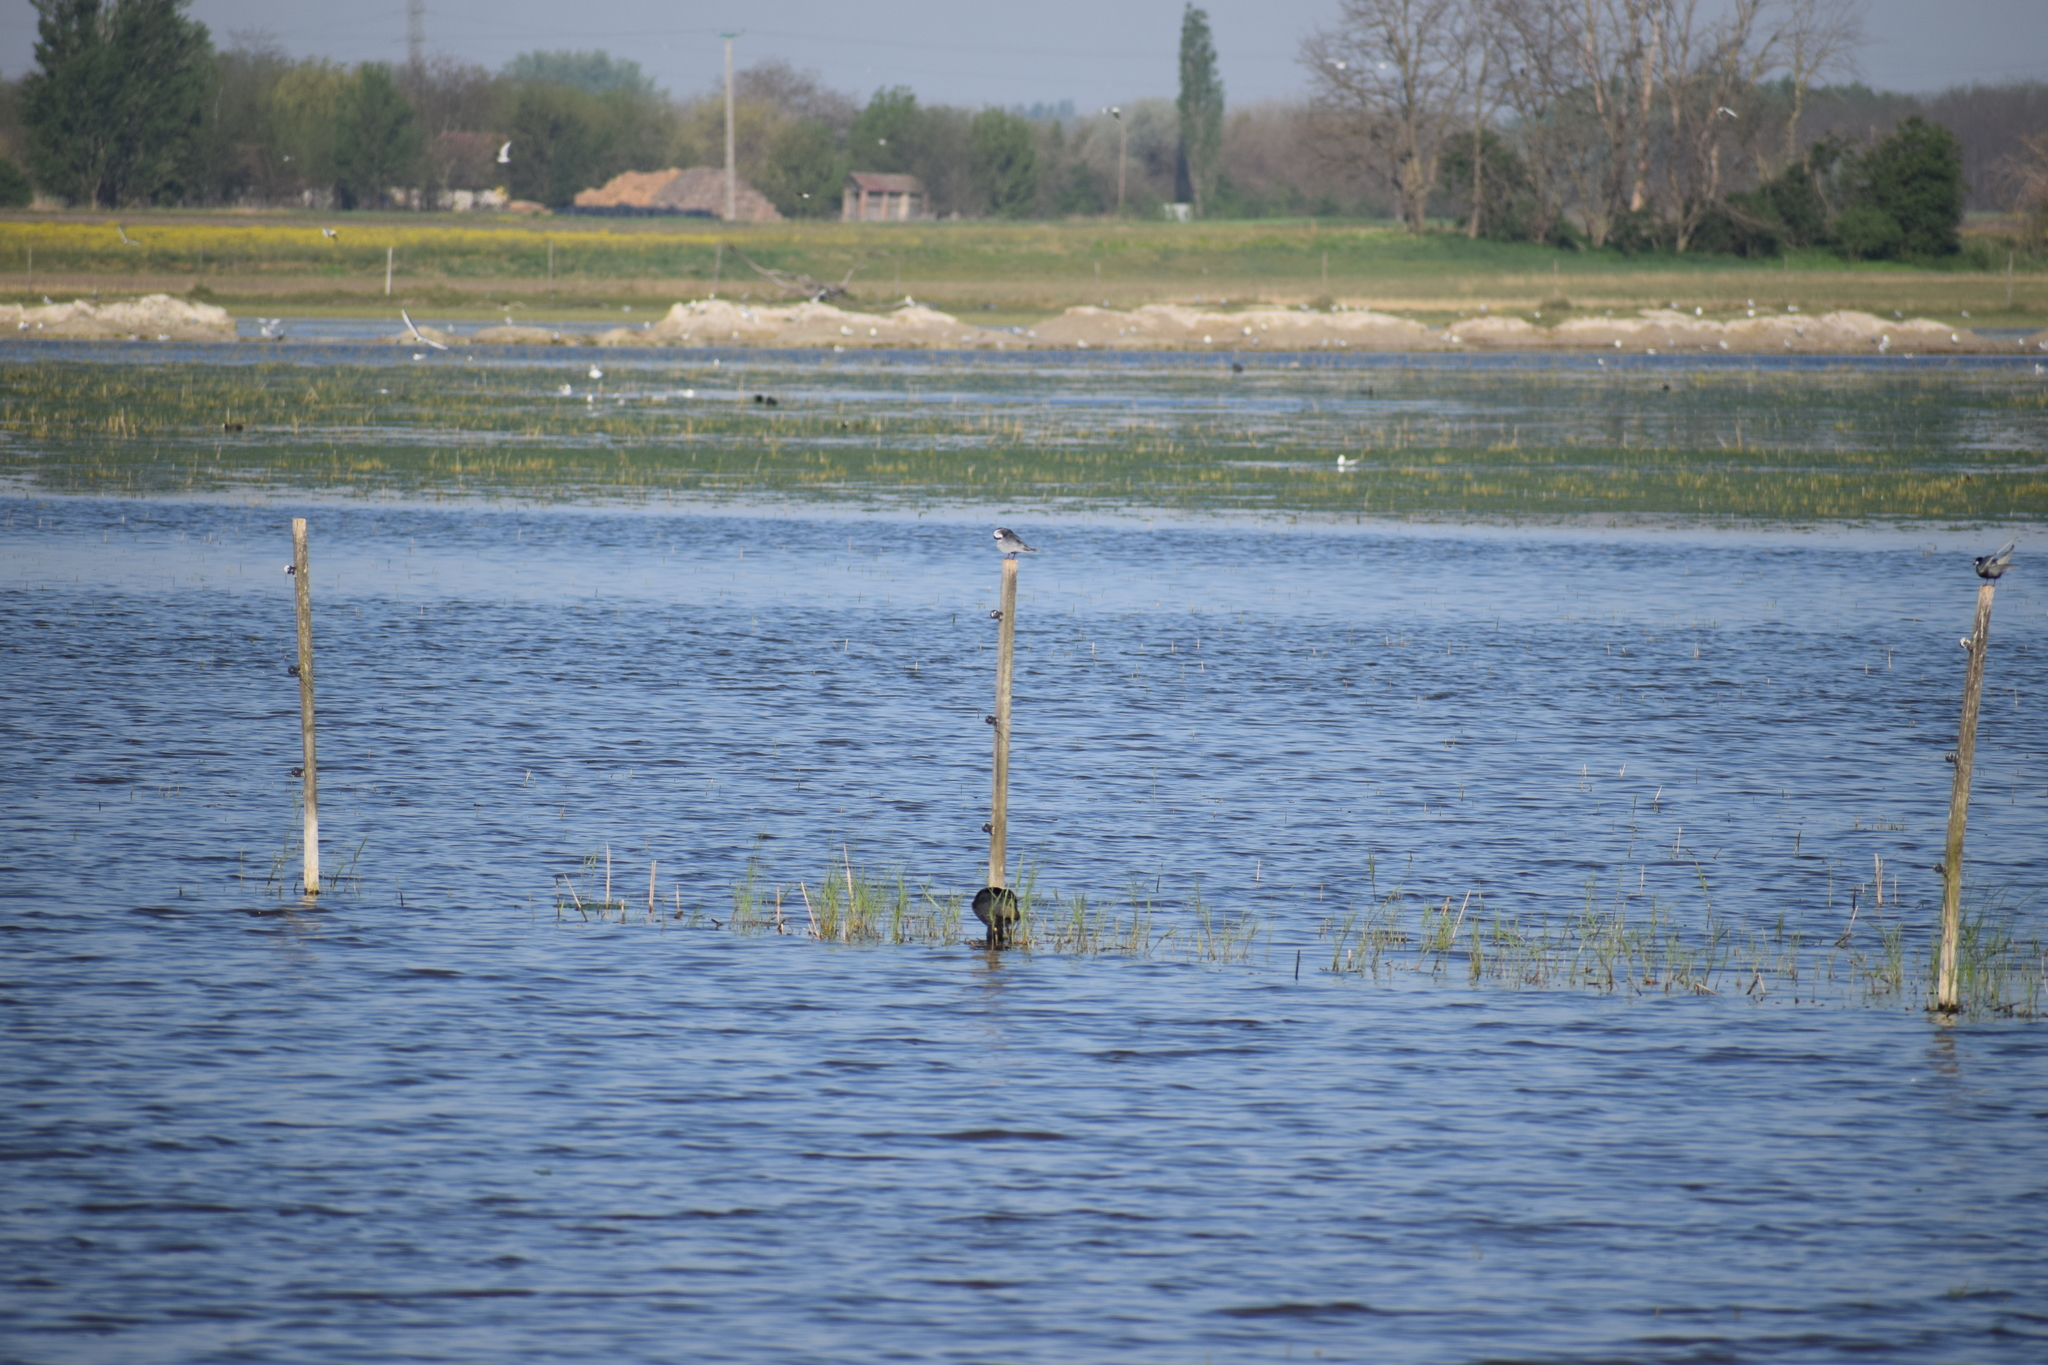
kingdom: Animalia
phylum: Chordata
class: Aves
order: Charadriiformes
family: Laridae
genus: Chlidonias
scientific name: Chlidonias hybrida
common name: Whiskered tern
